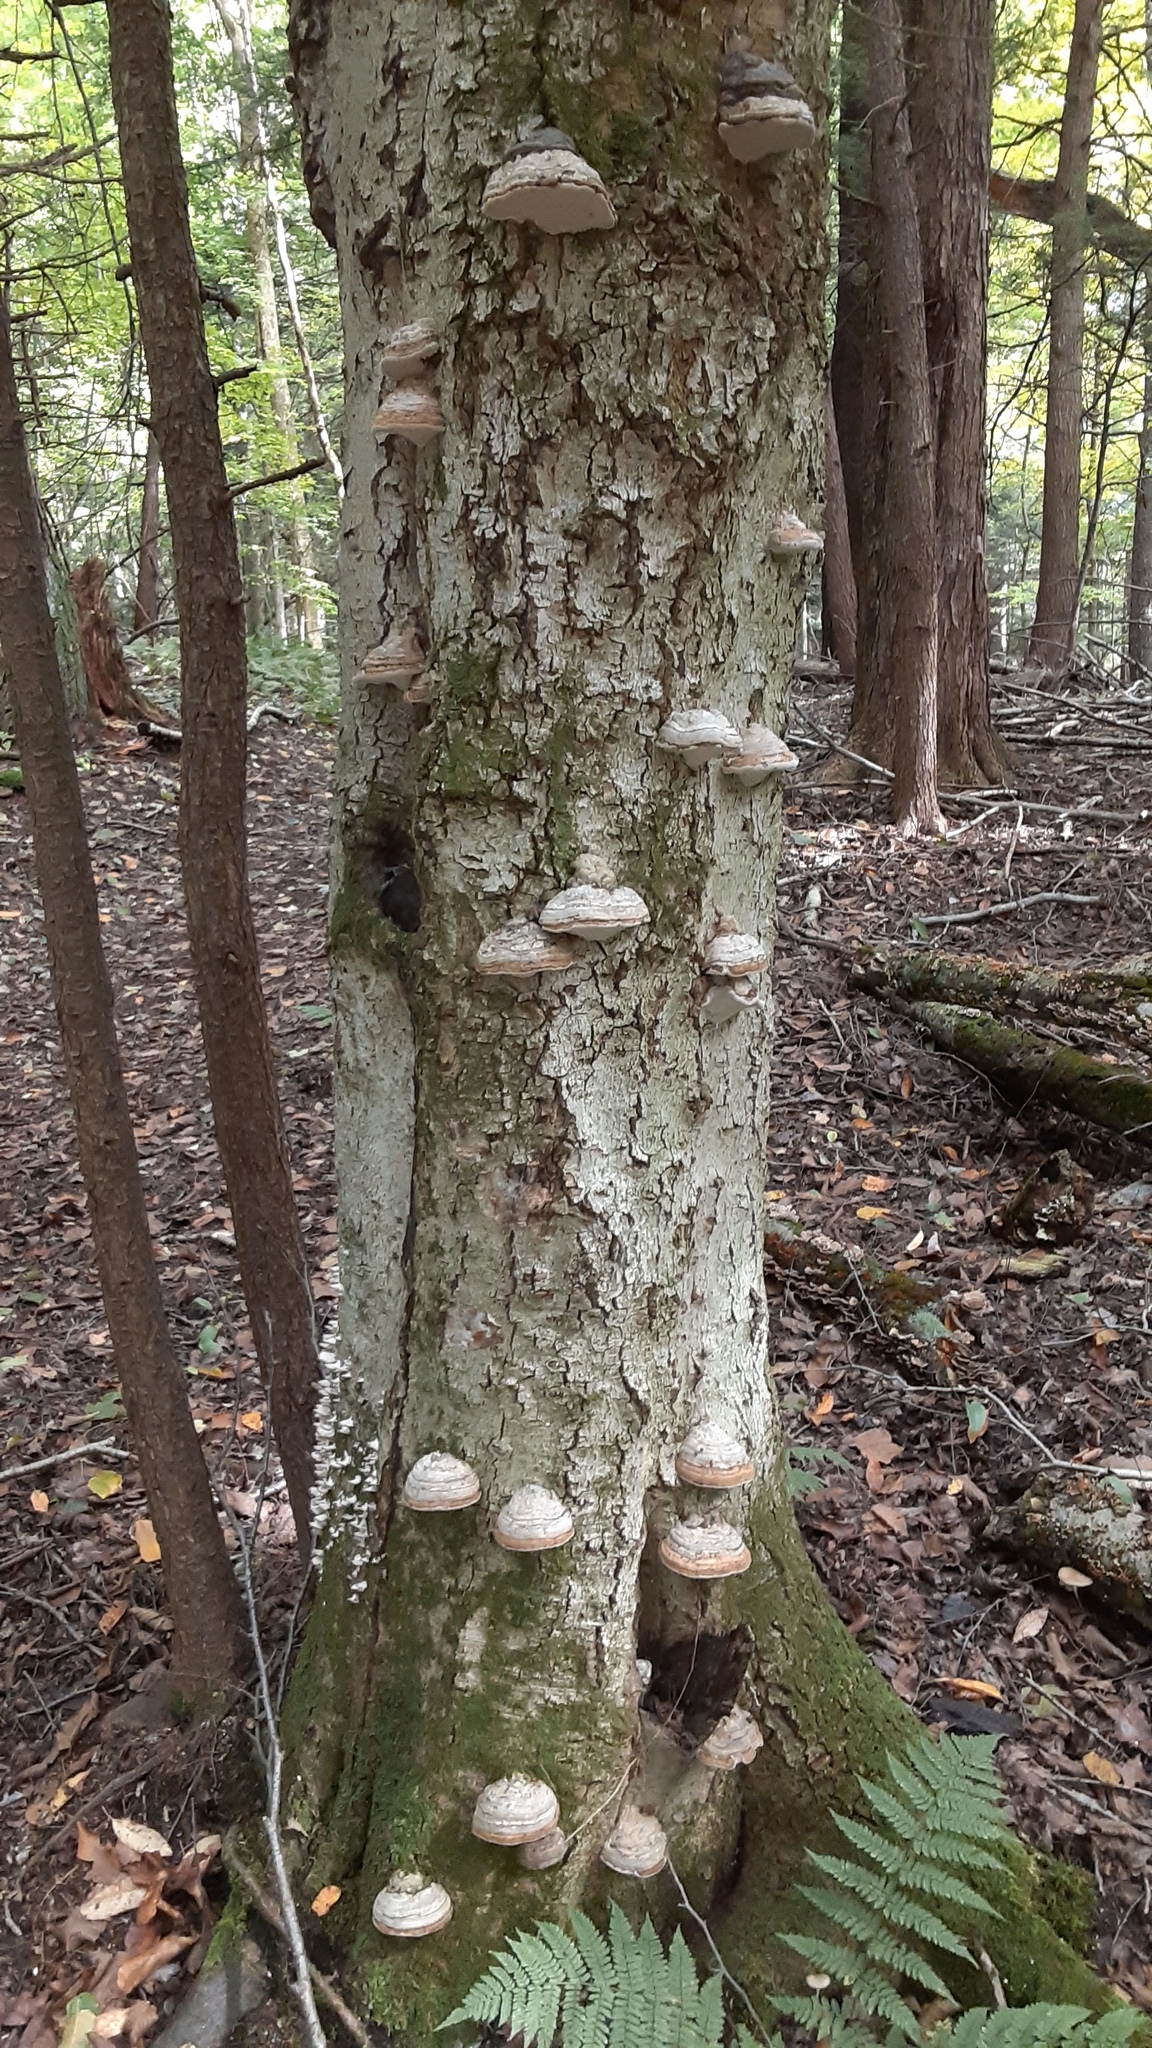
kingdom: Fungi
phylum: Basidiomycota
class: Agaricomycetes
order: Polyporales
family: Polyporaceae
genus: Fomes
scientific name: Fomes fomentarius
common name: Hoof fungus
